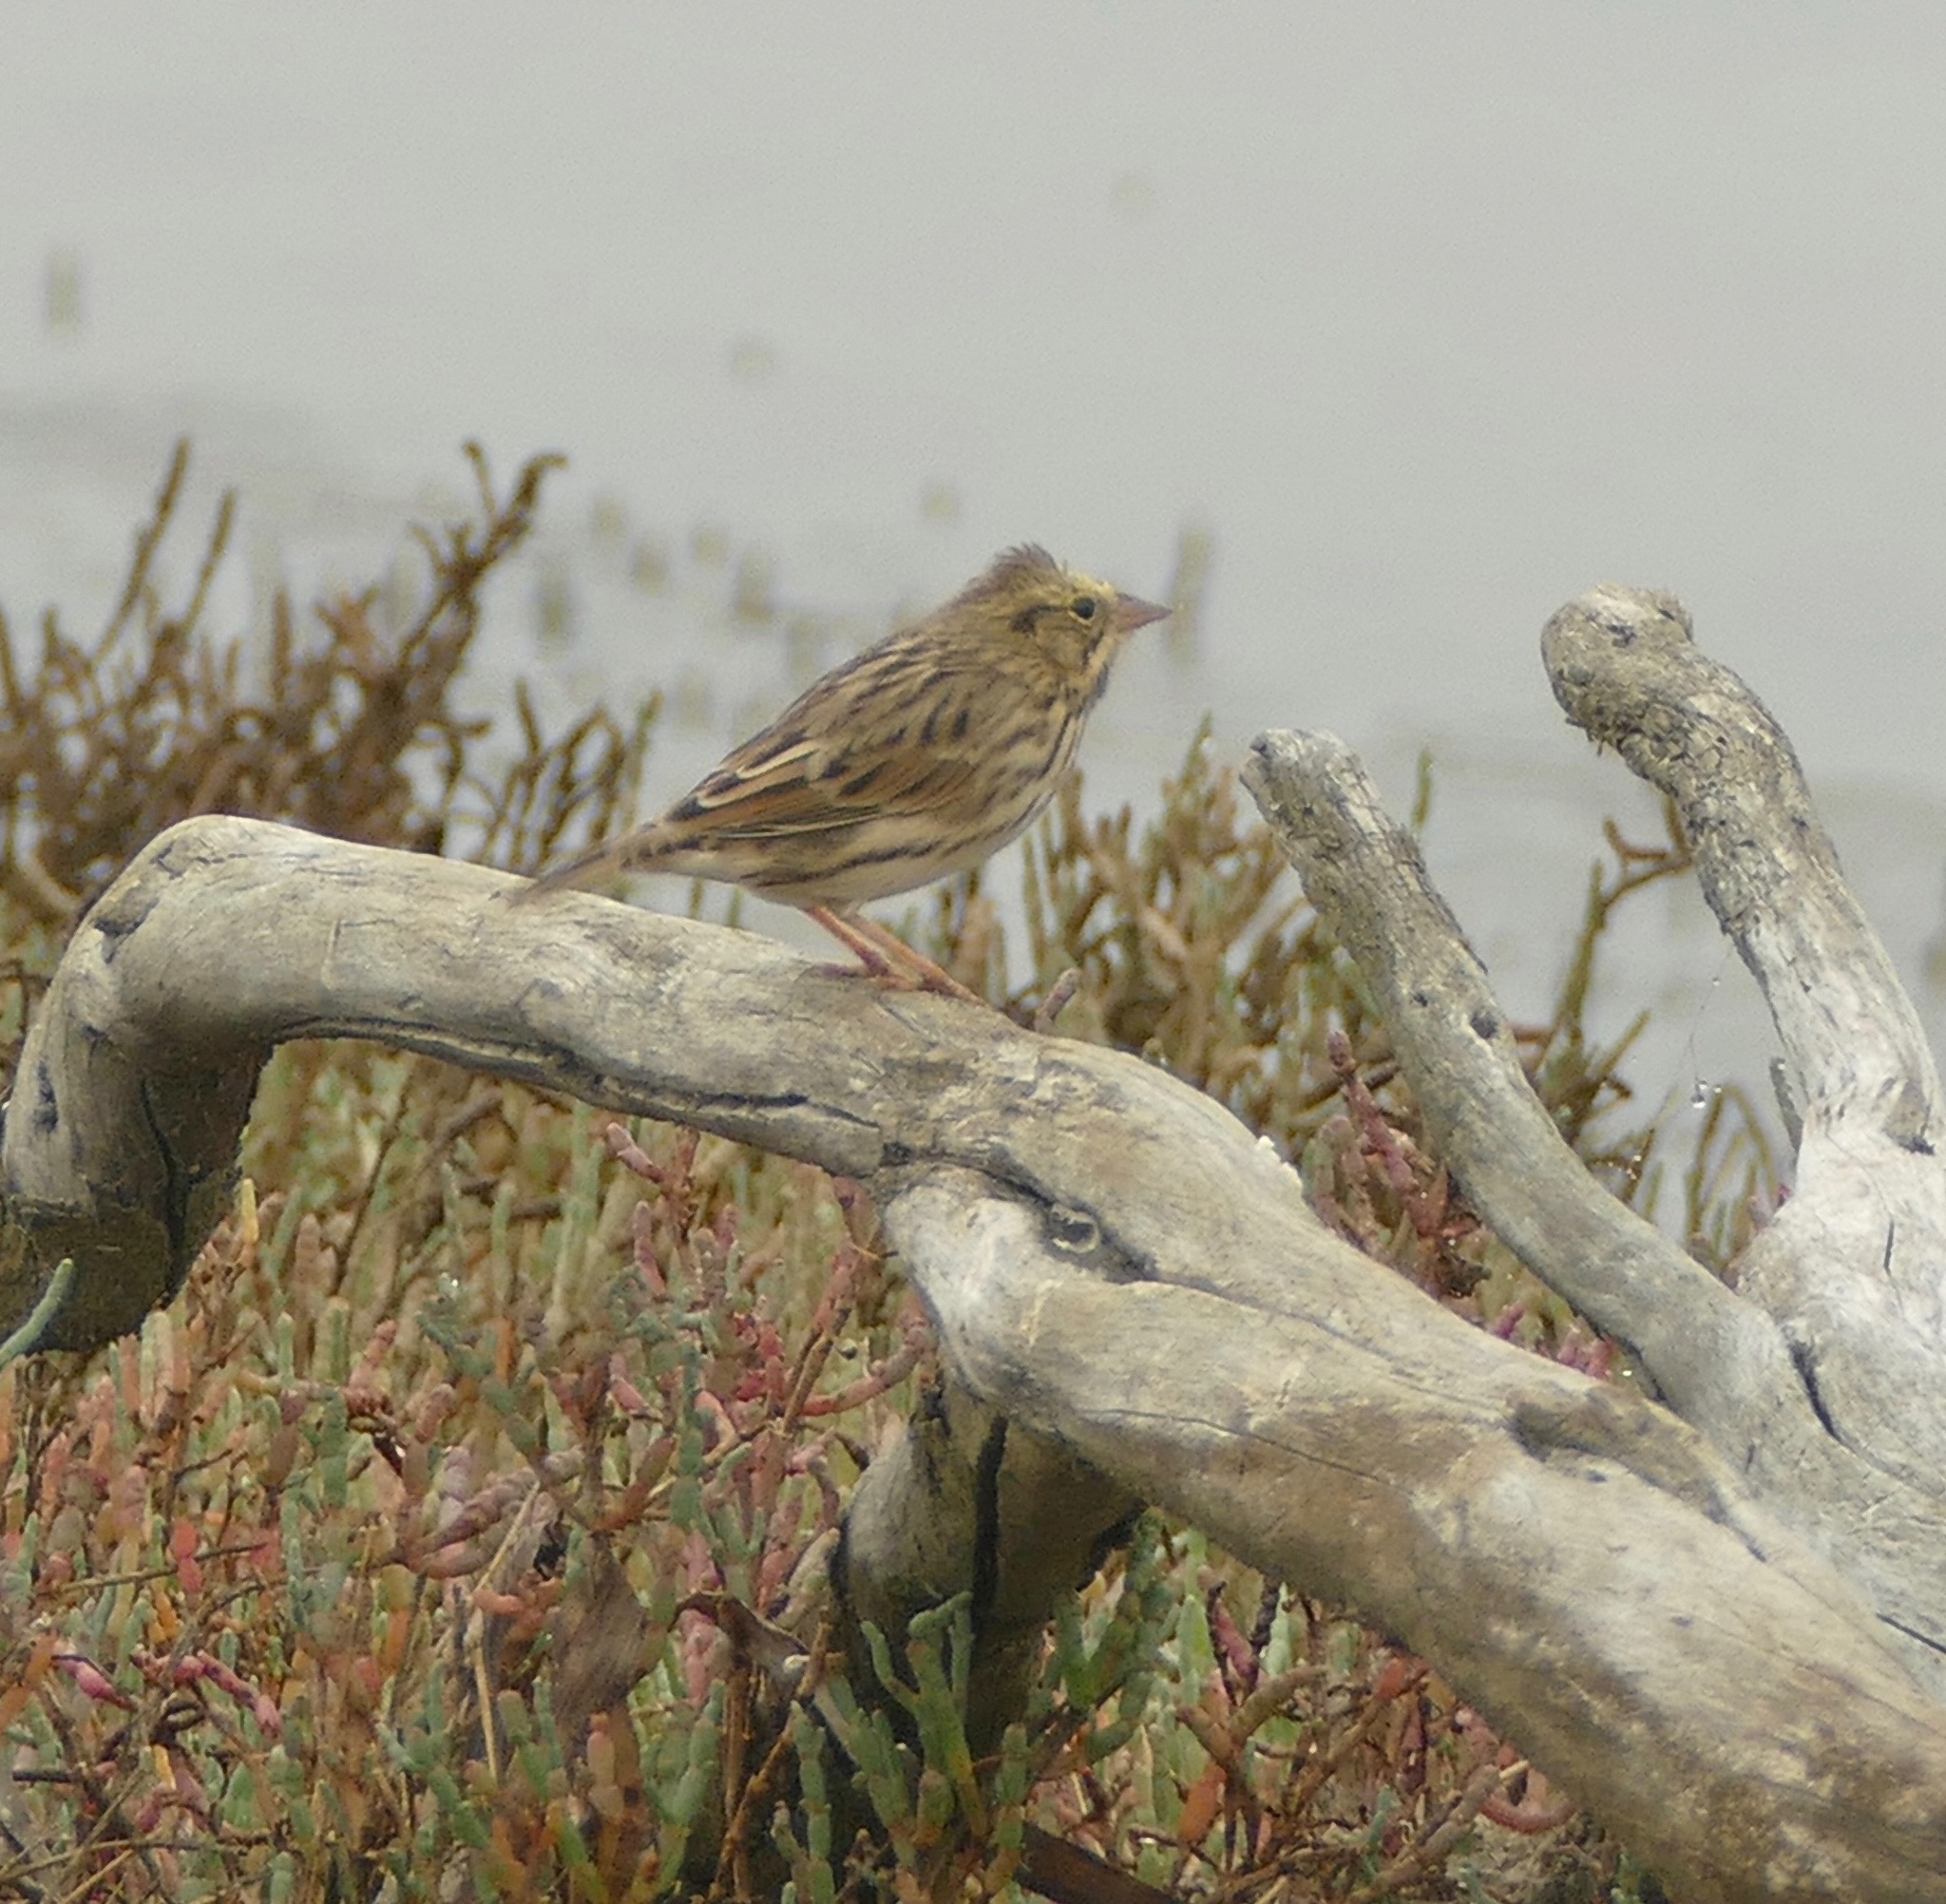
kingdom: Animalia
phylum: Chordata
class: Aves
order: Passeriformes
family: Passerellidae
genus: Passerculus
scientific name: Passerculus sandwichensis
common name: Savannah sparrow
